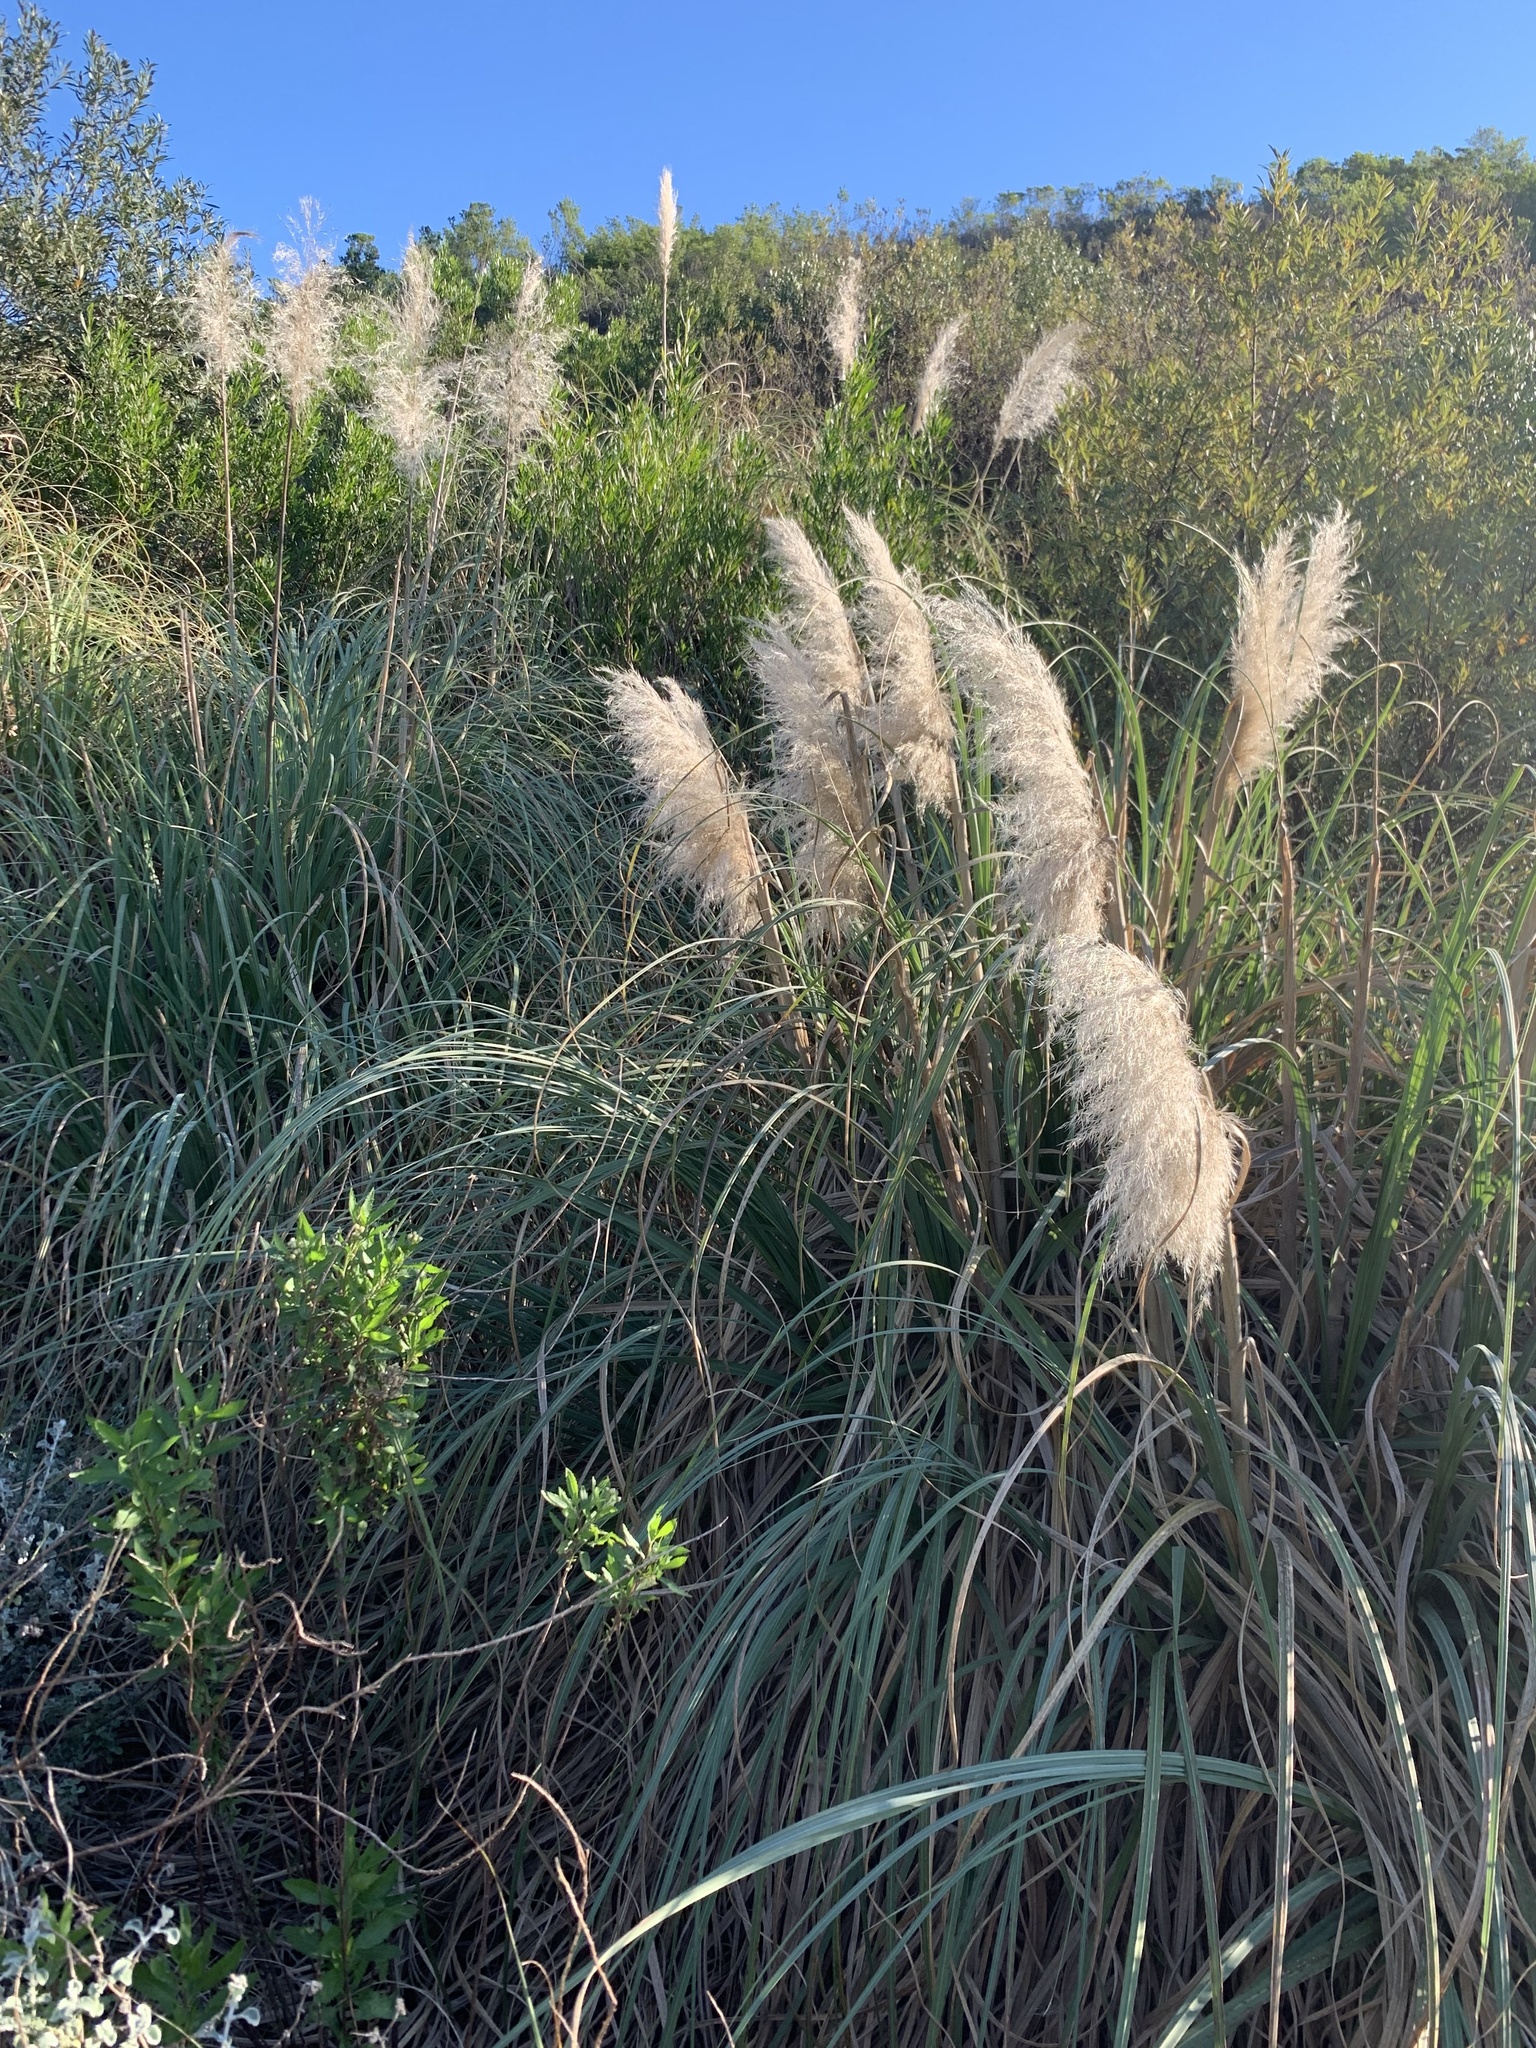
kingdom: Plantae
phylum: Tracheophyta
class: Liliopsida
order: Poales
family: Poaceae
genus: Cortaderia
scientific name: Cortaderia selloana
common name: Uruguayan pampas grass
